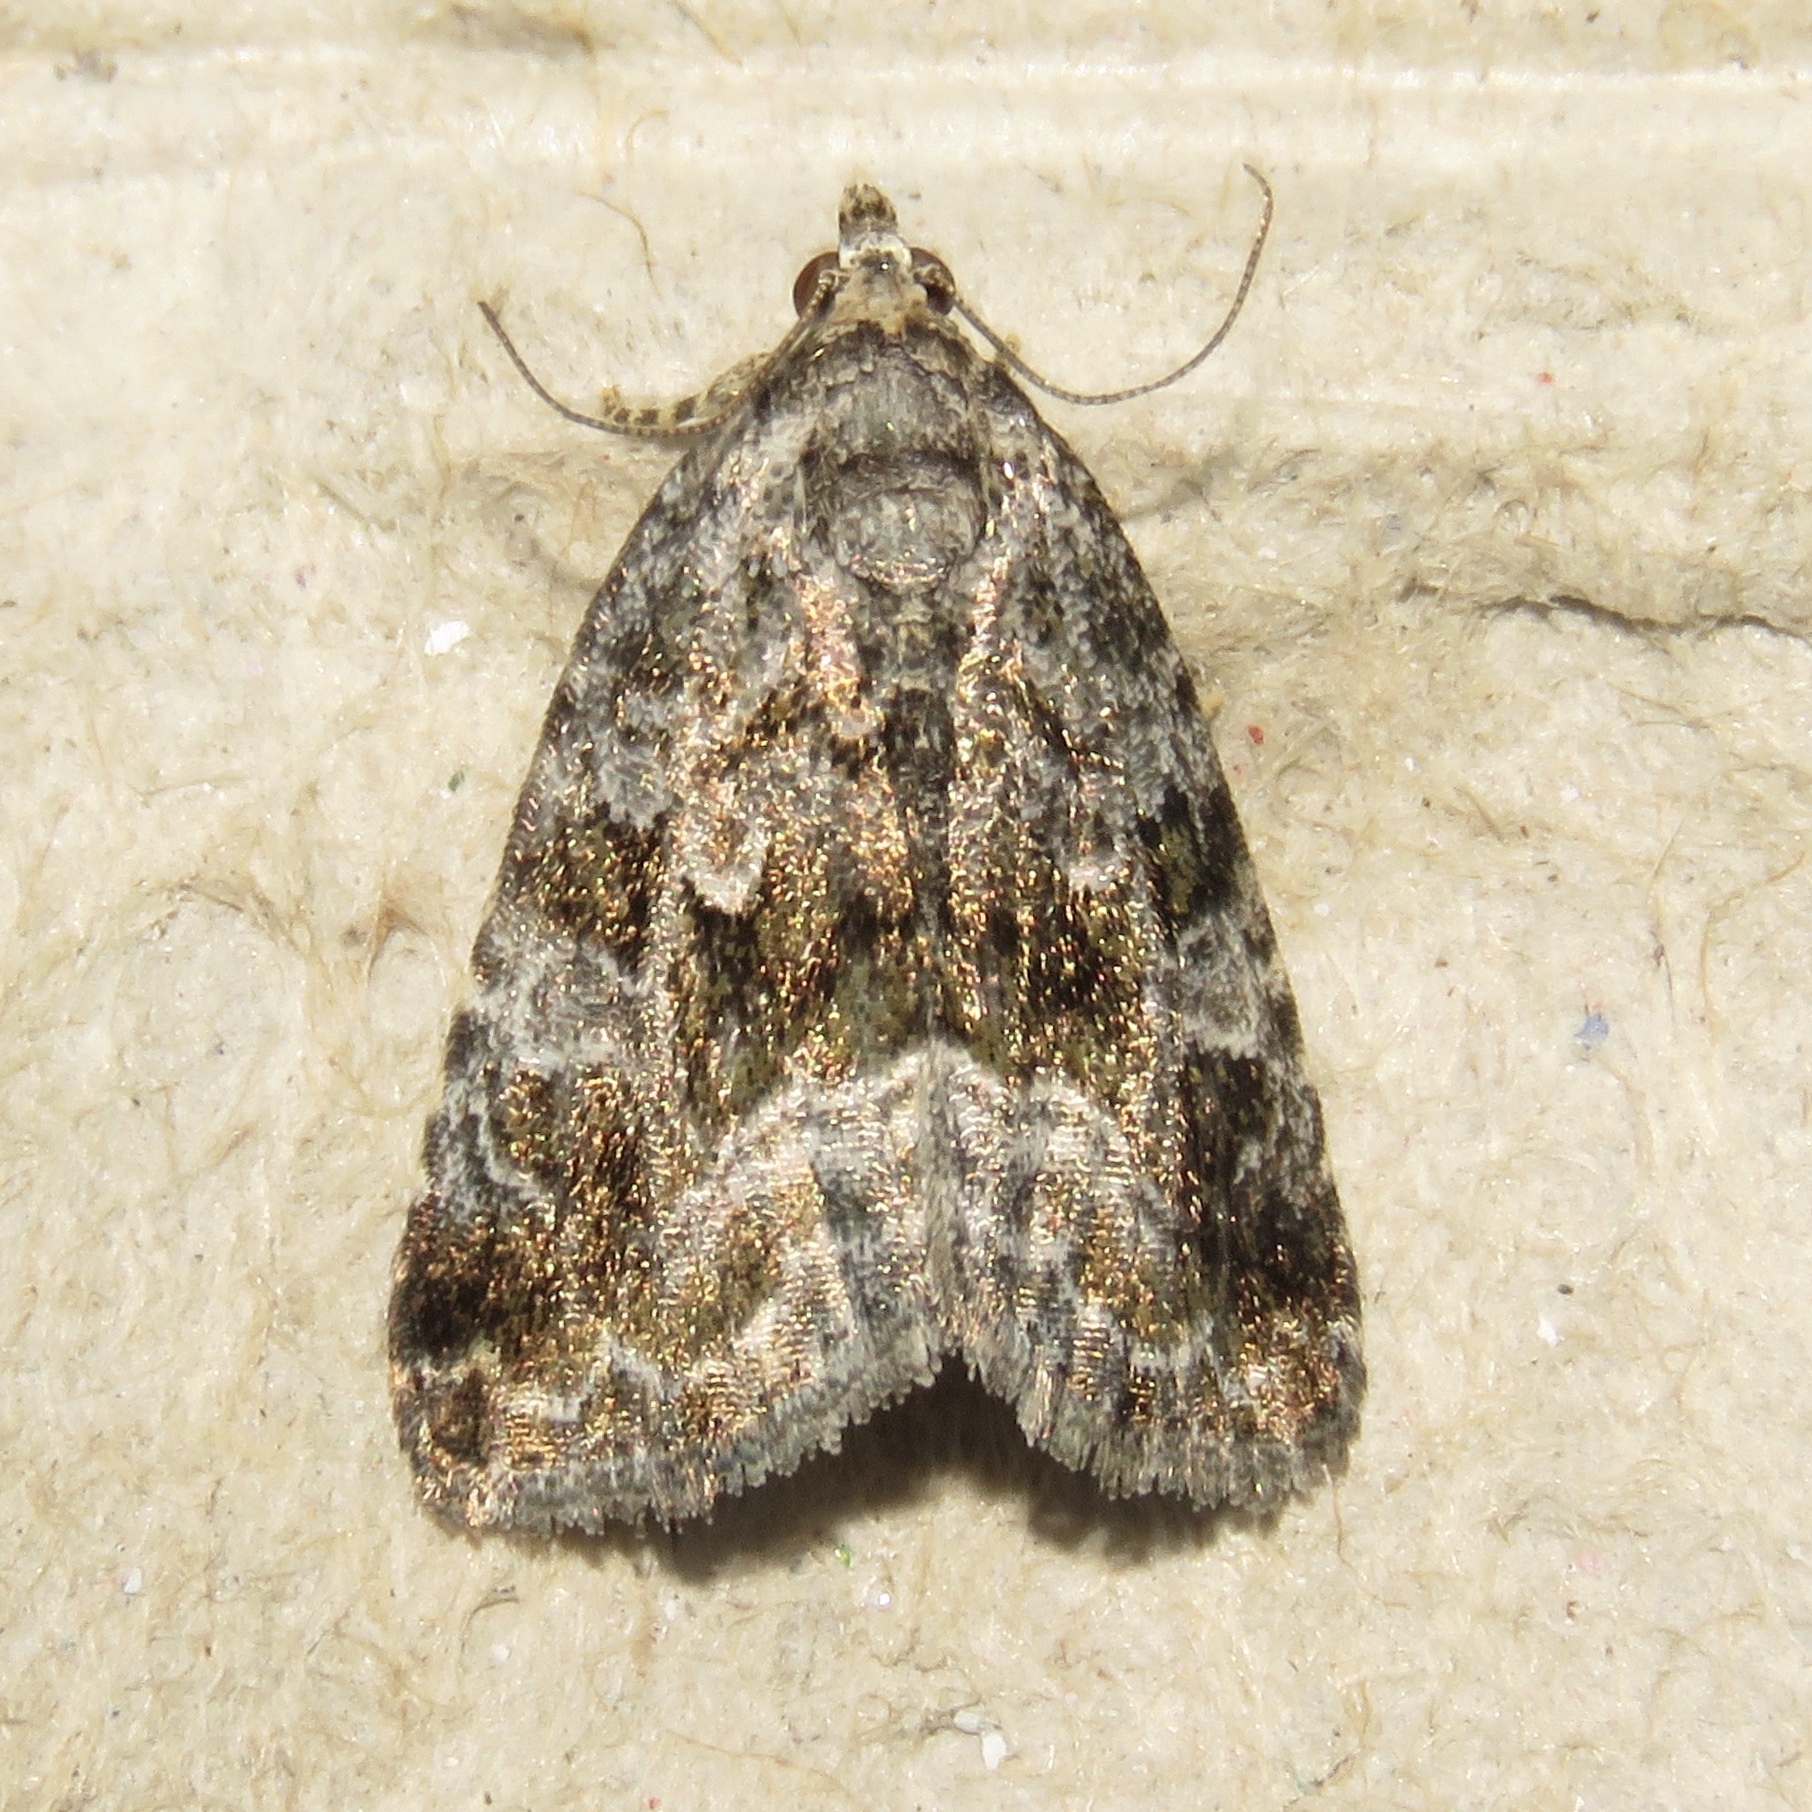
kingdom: Animalia
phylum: Arthropoda
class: Insecta
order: Lepidoptera
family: Noctuidae
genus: Protodeltote
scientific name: Protodeltote muscosula
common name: Large mossy glyph
